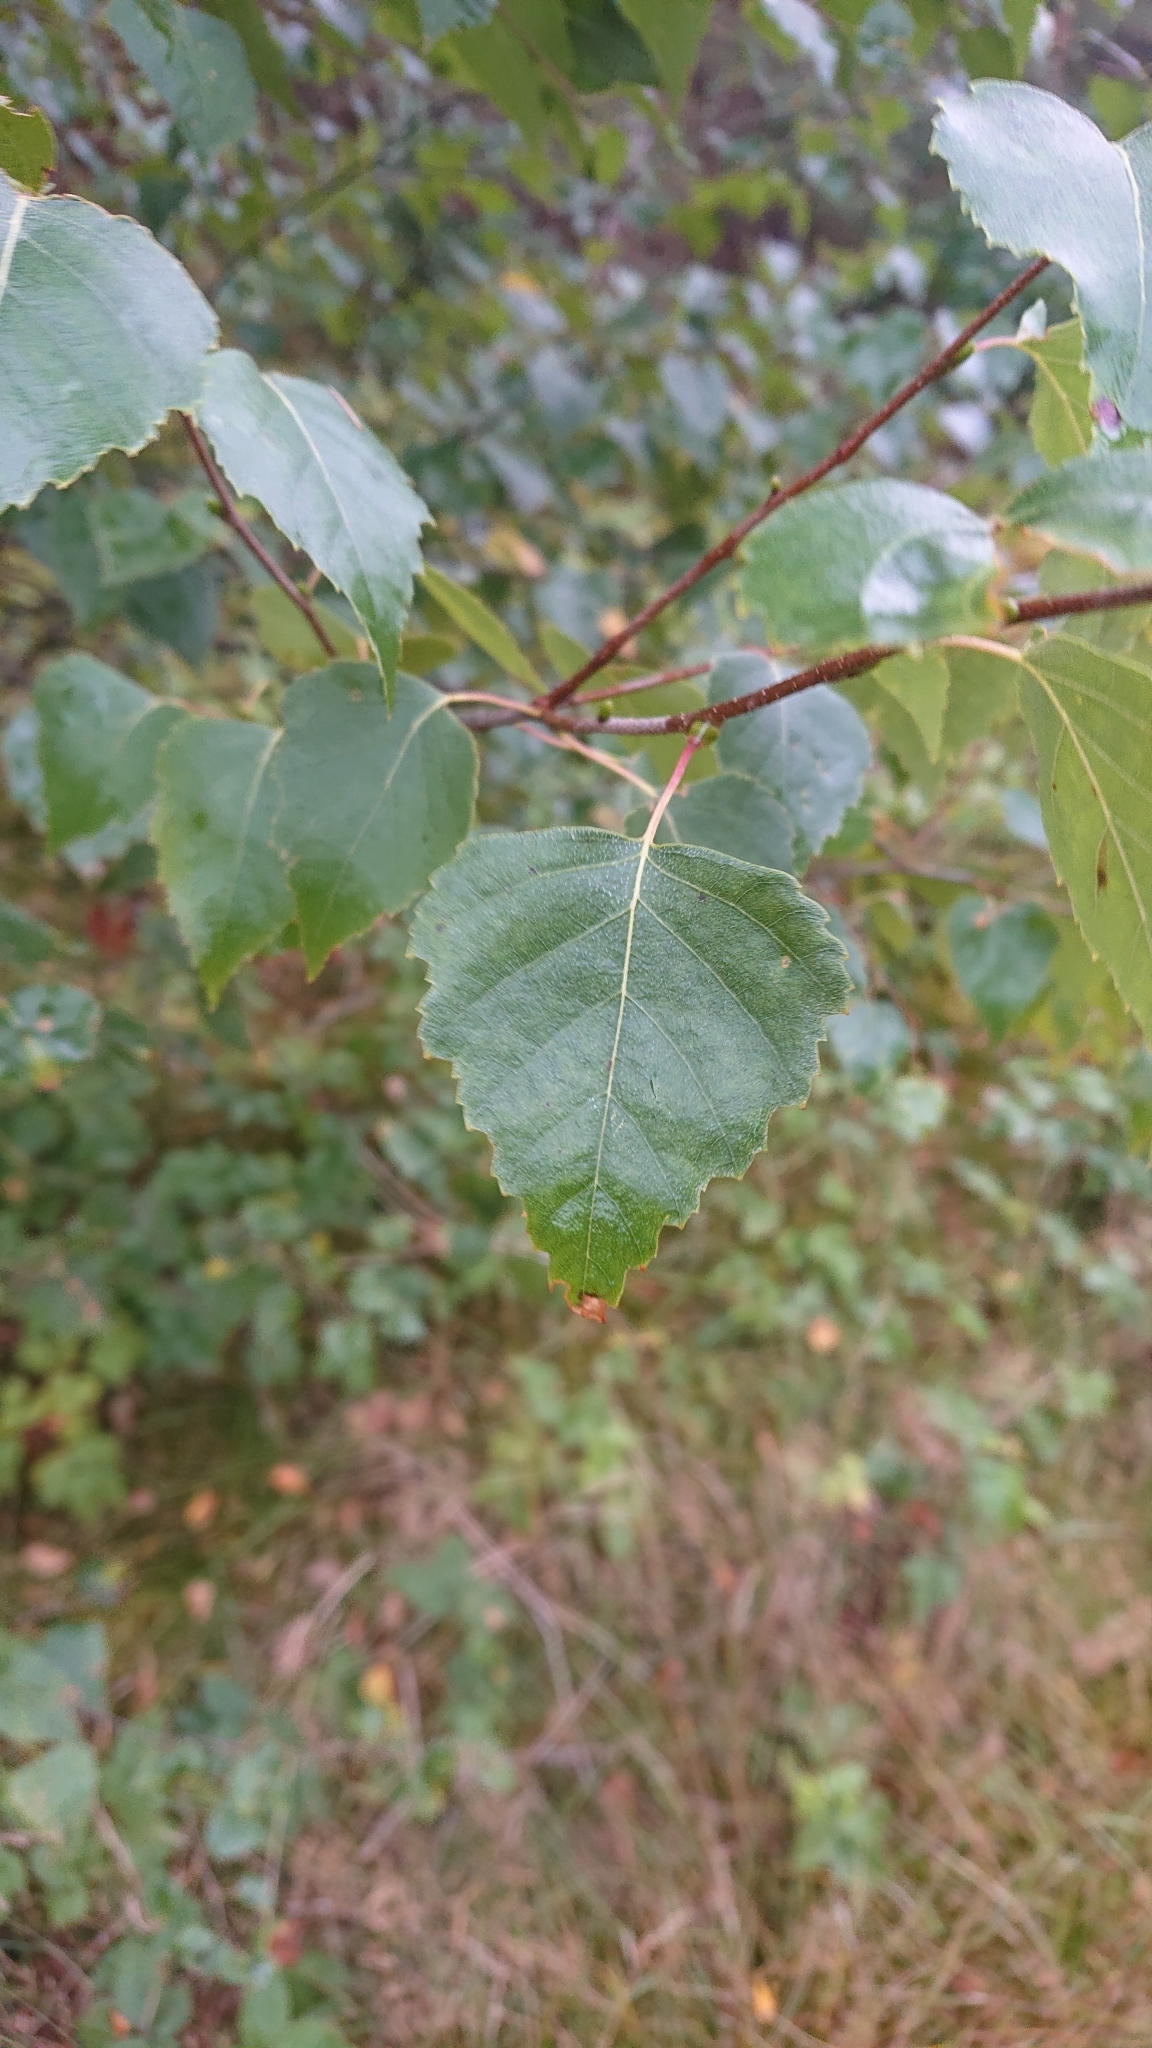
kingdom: Plantae
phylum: Tracheophyta
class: Magnoliopsida
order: Fagales
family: Betulaceae
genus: Betula
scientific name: Betula pendula
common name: Silver birch
